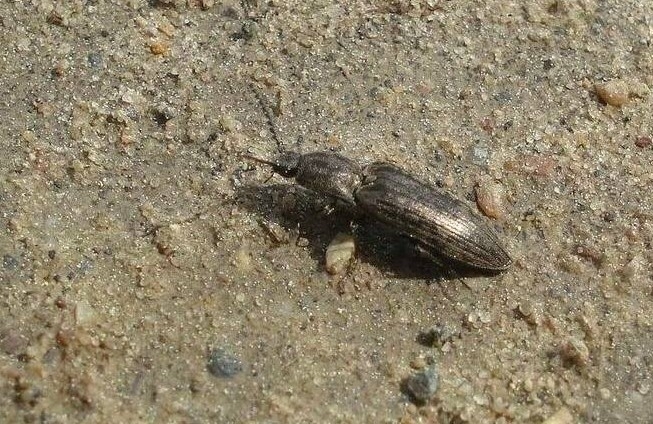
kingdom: Animalia
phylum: Arthropoda
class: Insecta
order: Coleoptera
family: Elateridae
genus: Actenicerus
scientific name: Actenicerus sjaelandicus
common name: Marsh click beetle
